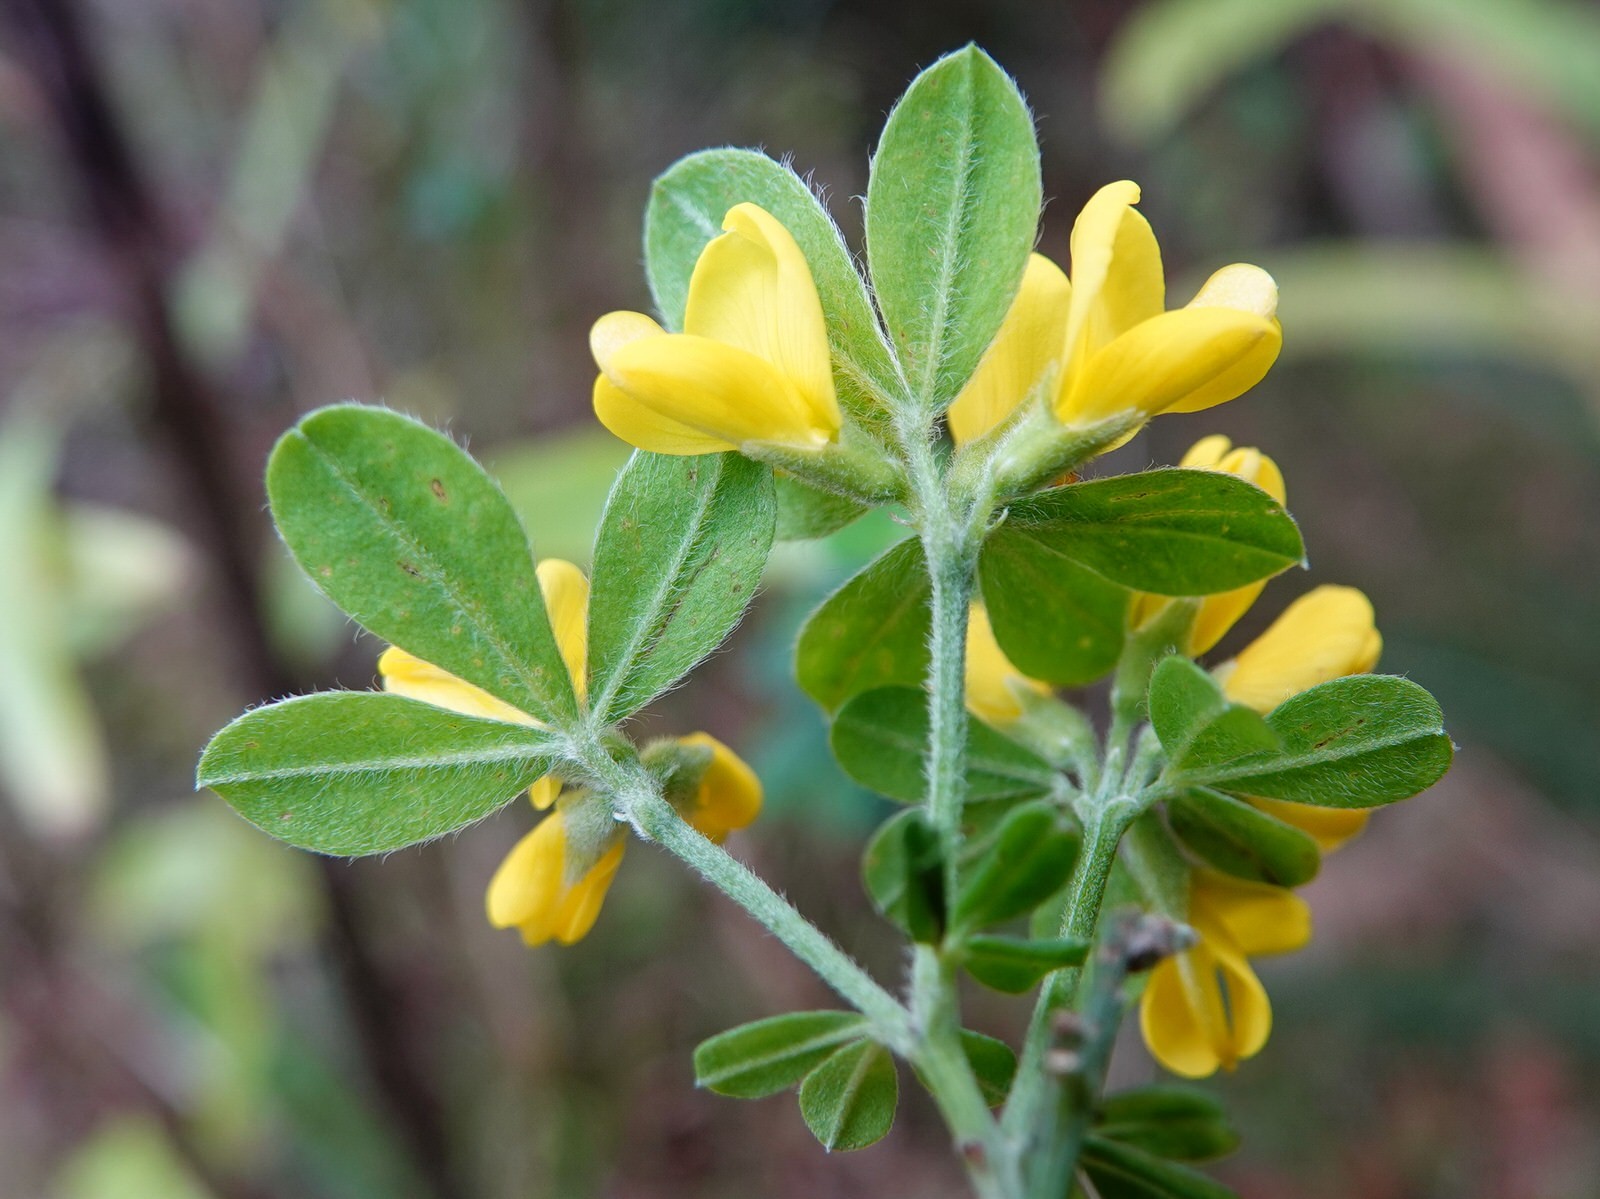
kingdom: Plantae
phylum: Tracheophyta
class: Magnoliopsida
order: Fabales
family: Fabaceae
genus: Genista
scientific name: Genista monspessulana
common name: Montpellier broom
